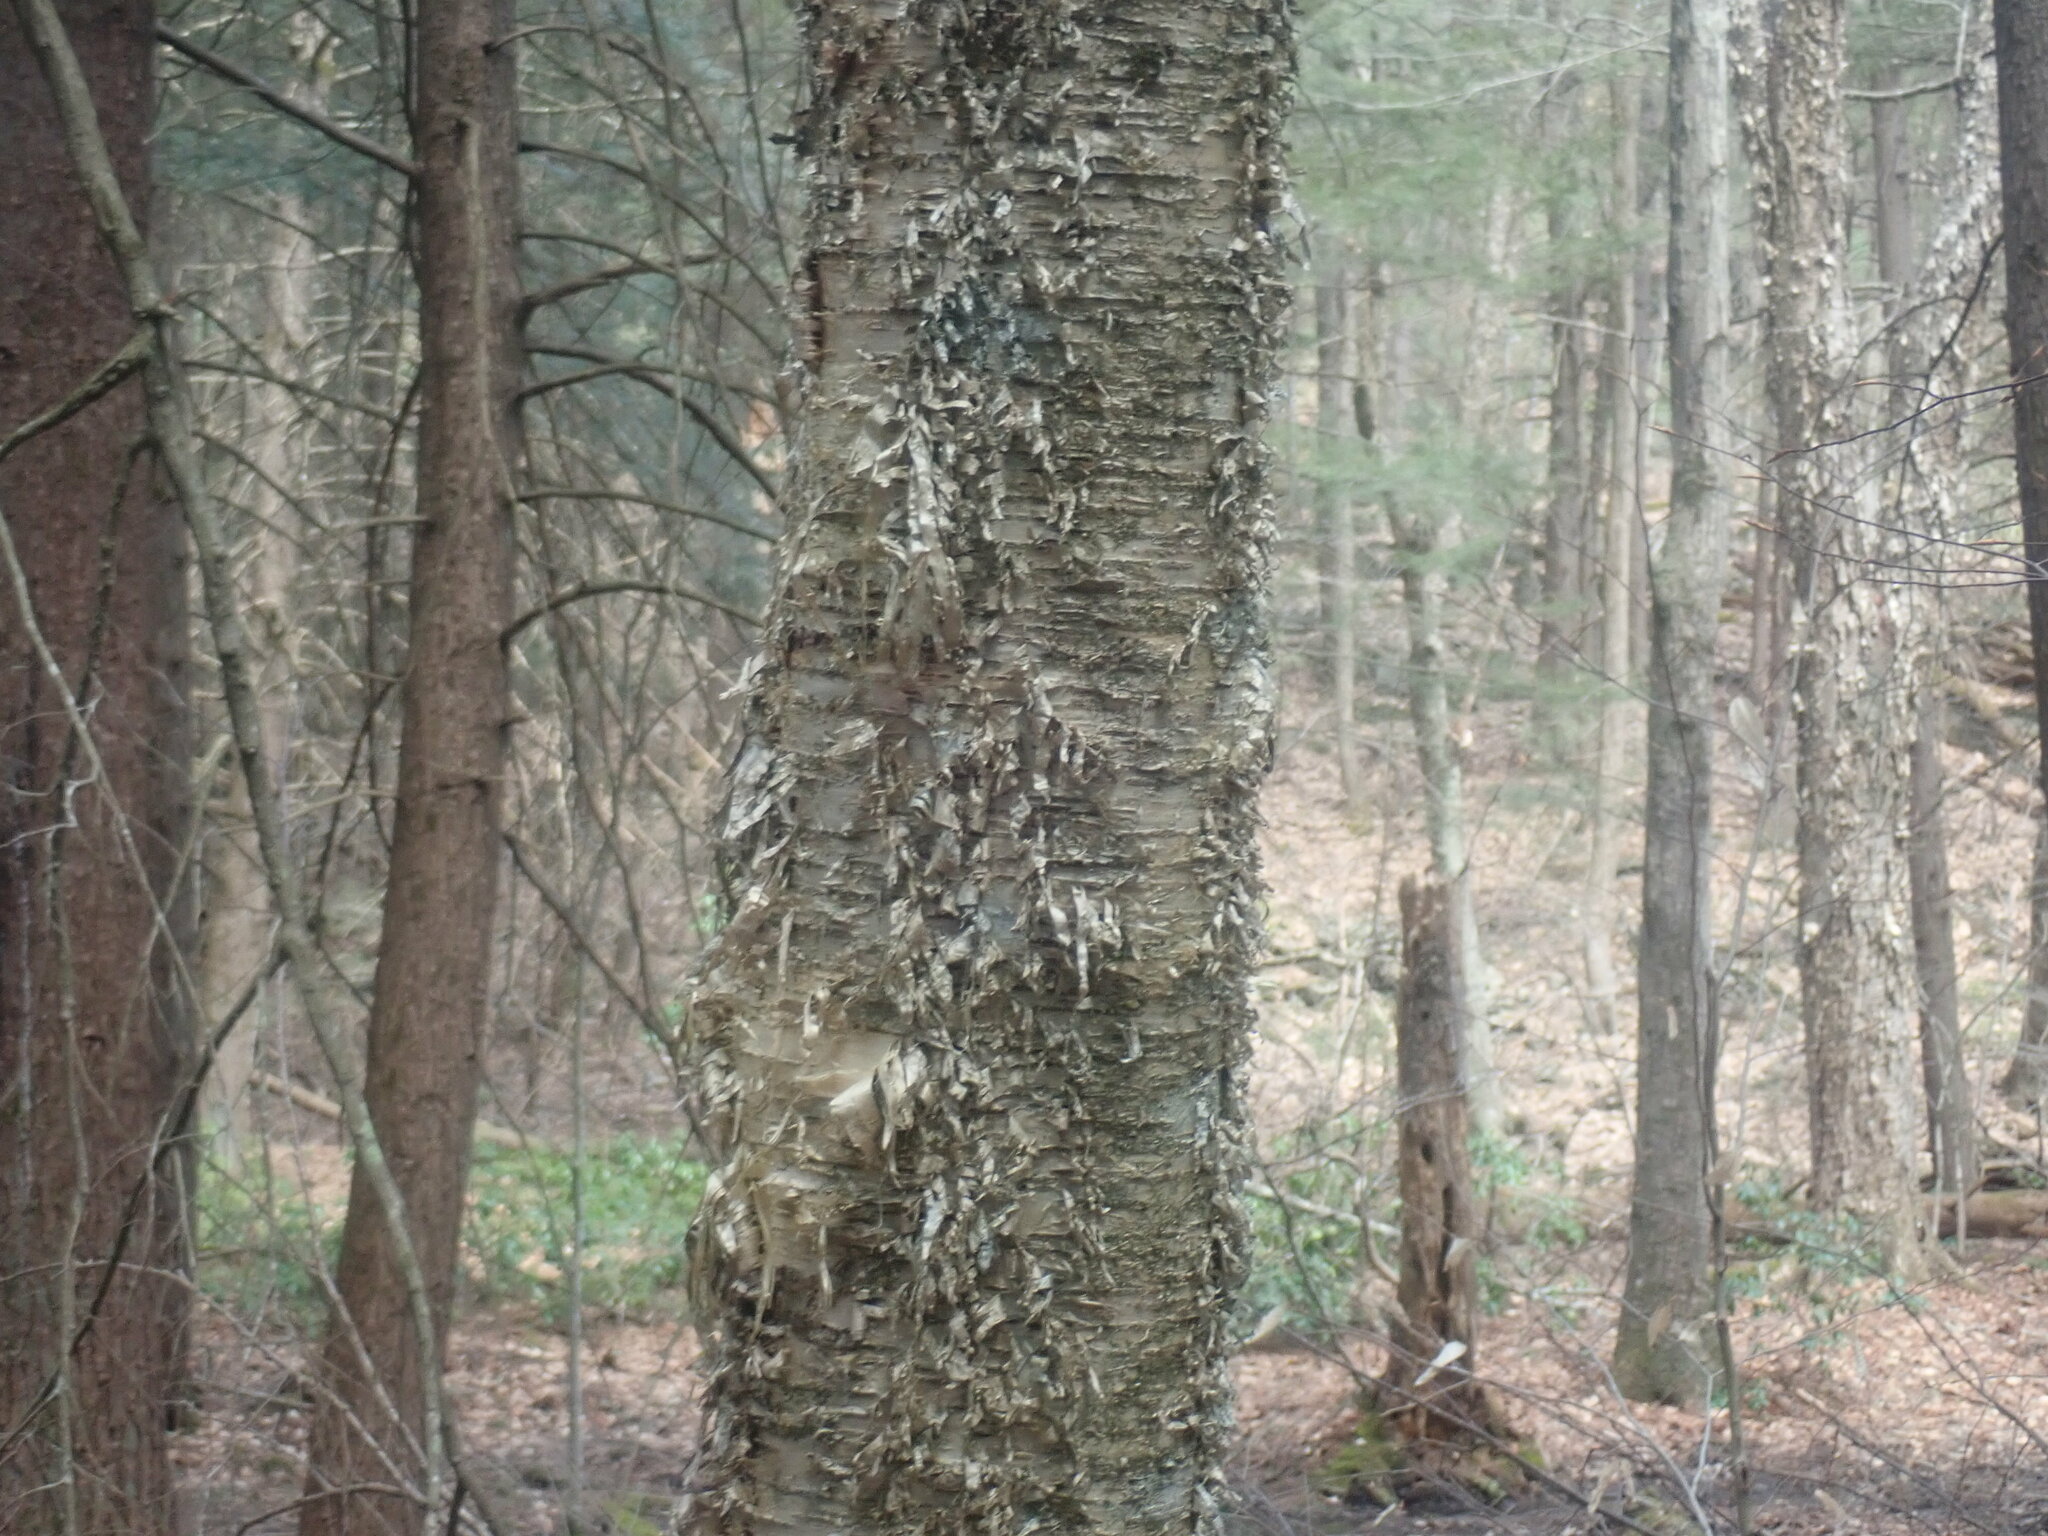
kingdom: Plantae
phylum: Tracheophyta
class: Magnoliopsida
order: Fagales
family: Betulaceae
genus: Betula
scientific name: Betula alleghaniensis
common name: Yellow birch
